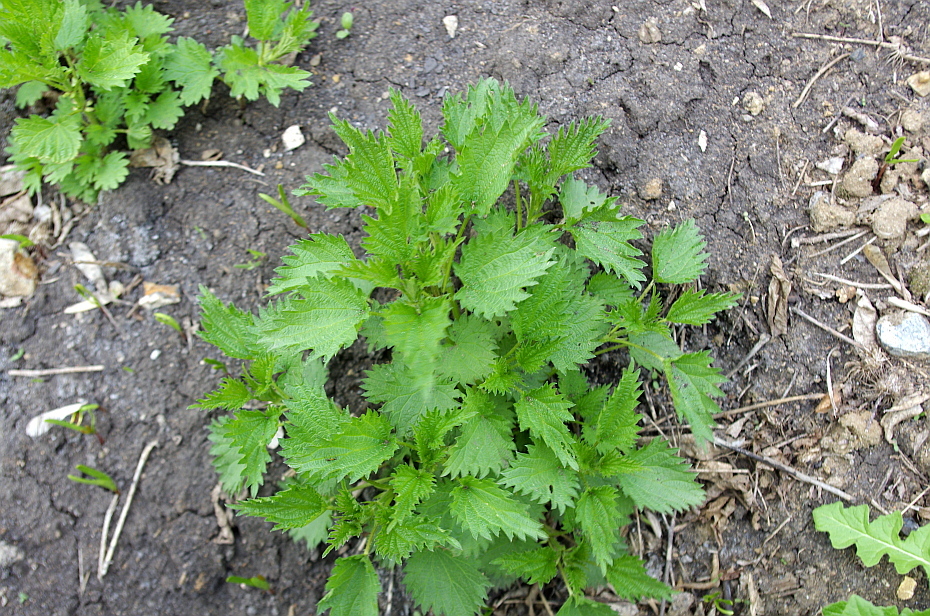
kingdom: Plantae
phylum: Tracheophyta
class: Magnoliopsida
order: Rosales
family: Urticaceae
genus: Urtica
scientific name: Urtica dioica
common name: Common nettle
